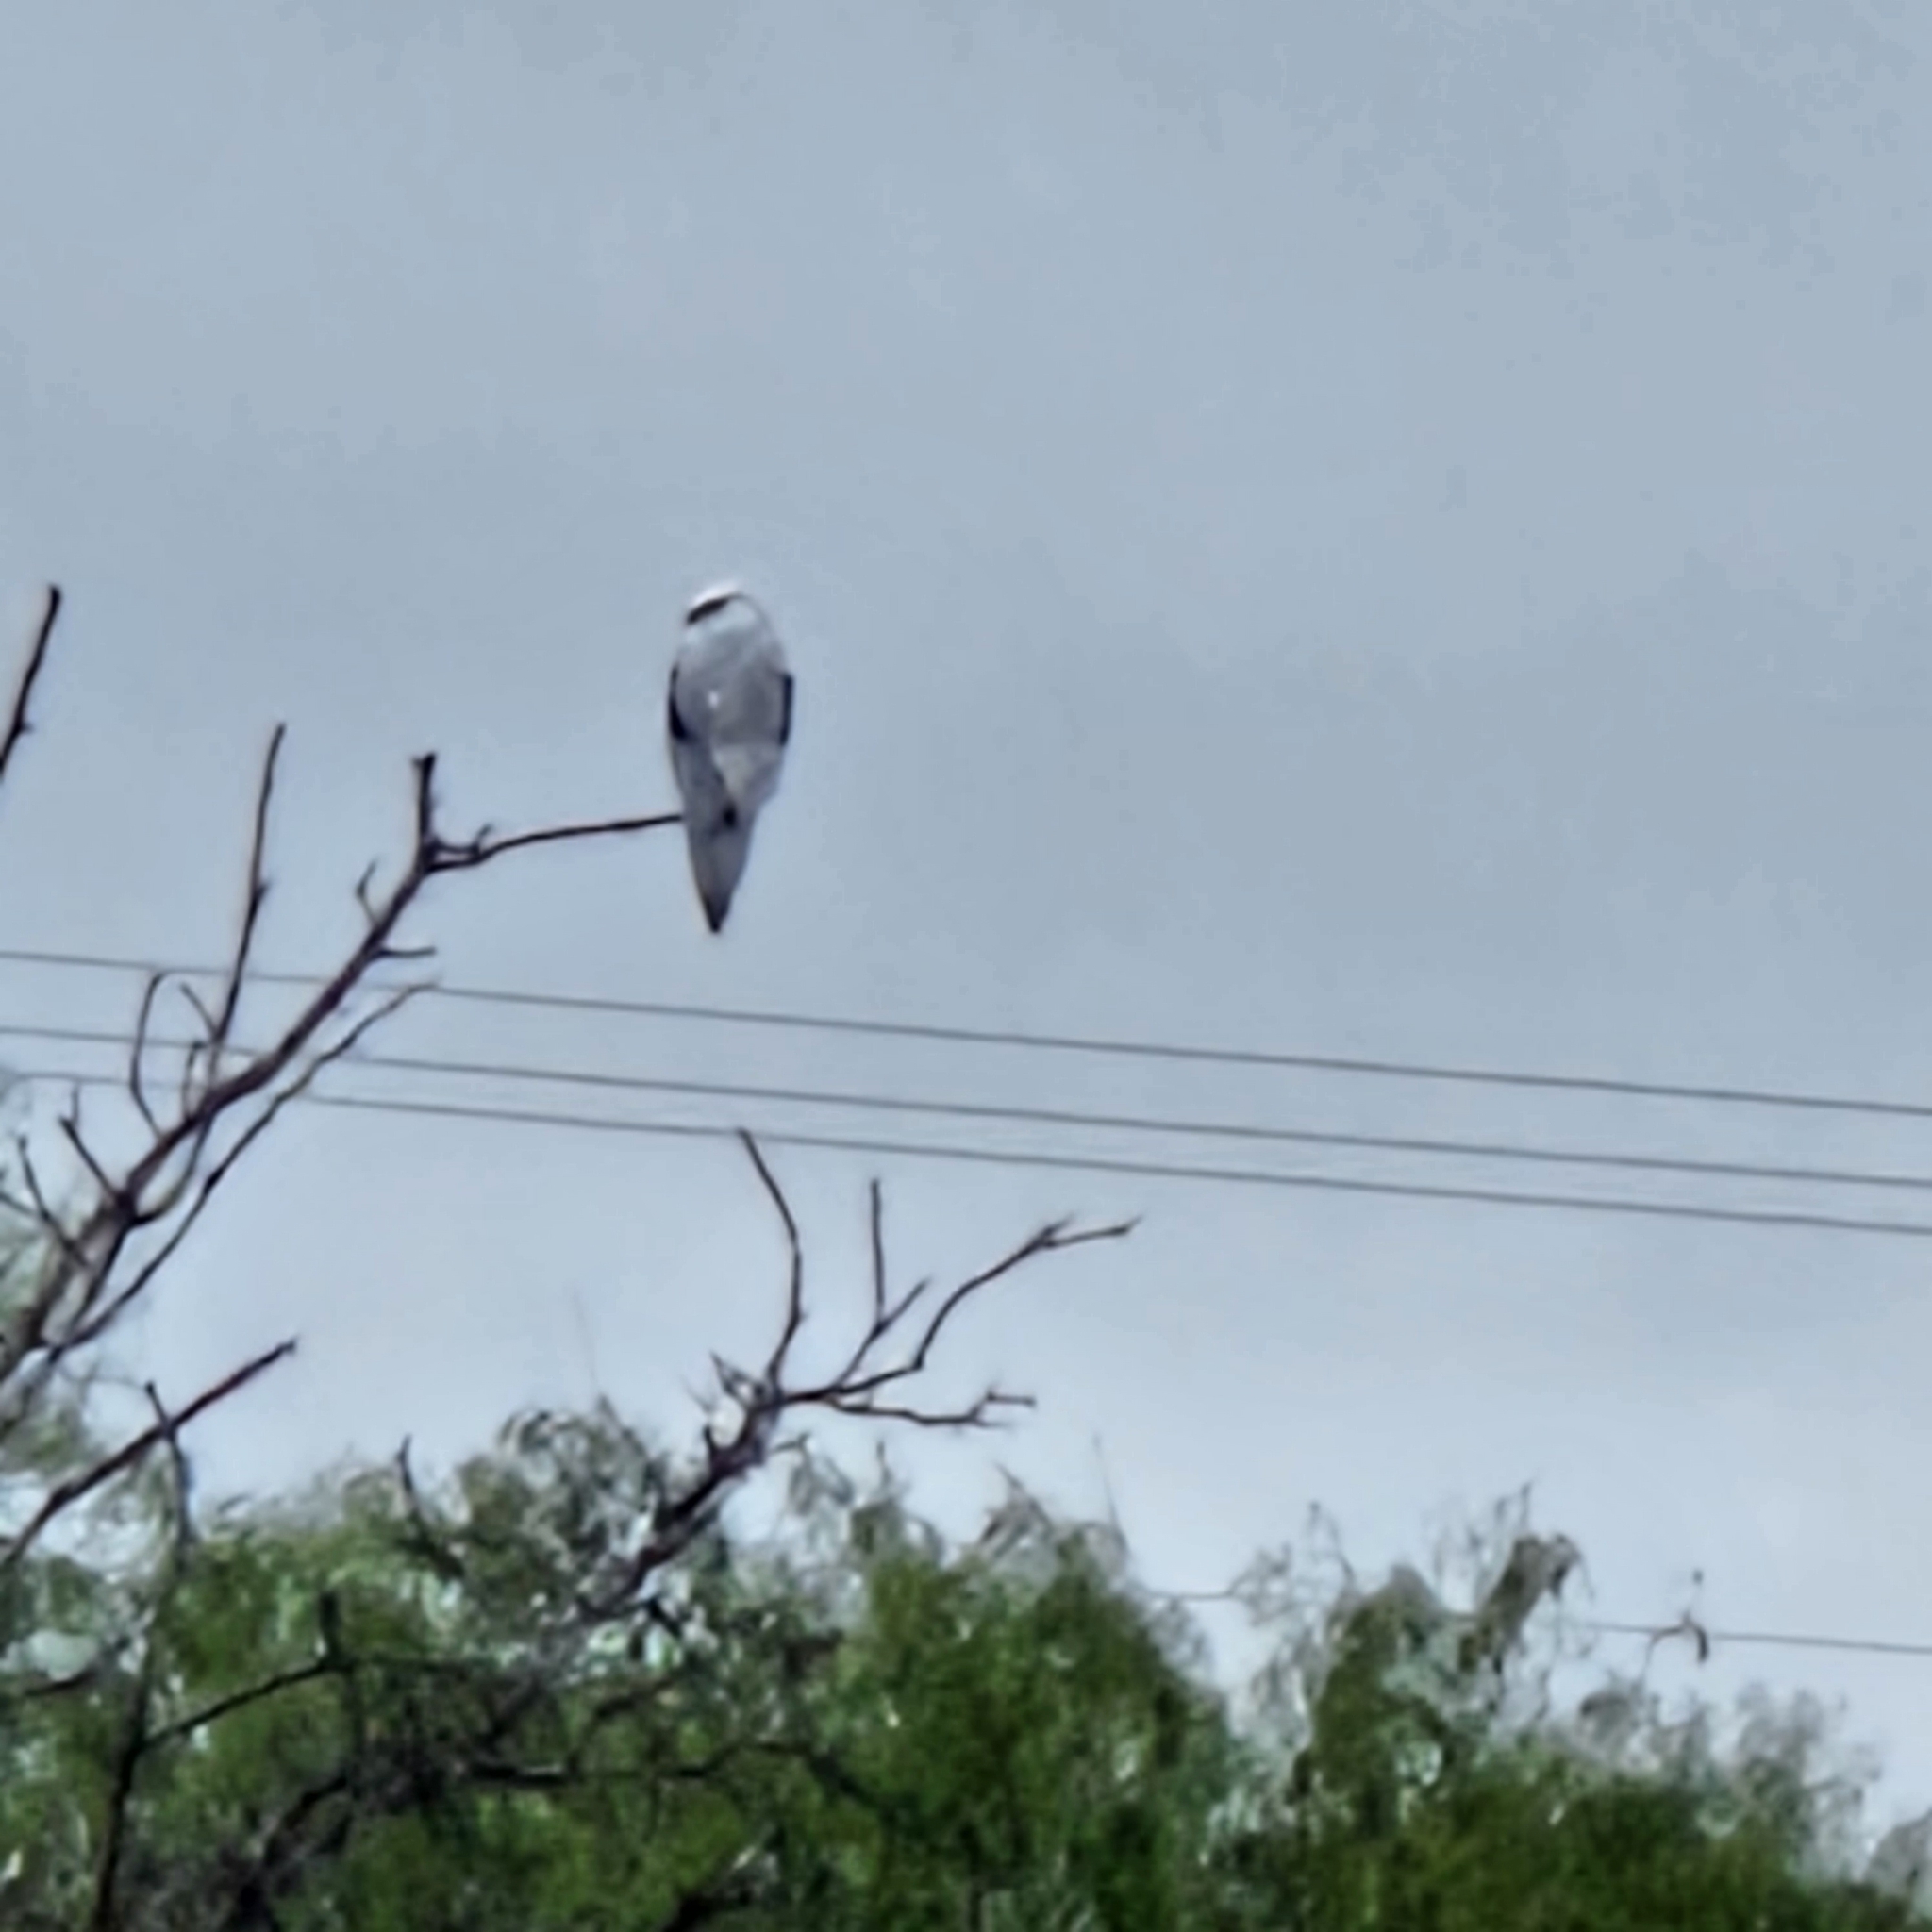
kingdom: Animalia
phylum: Chordata
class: Aves
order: Accipitriformes
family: Accipitridae
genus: Elanus
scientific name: Elanus leucurus
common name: White-tailed kite
